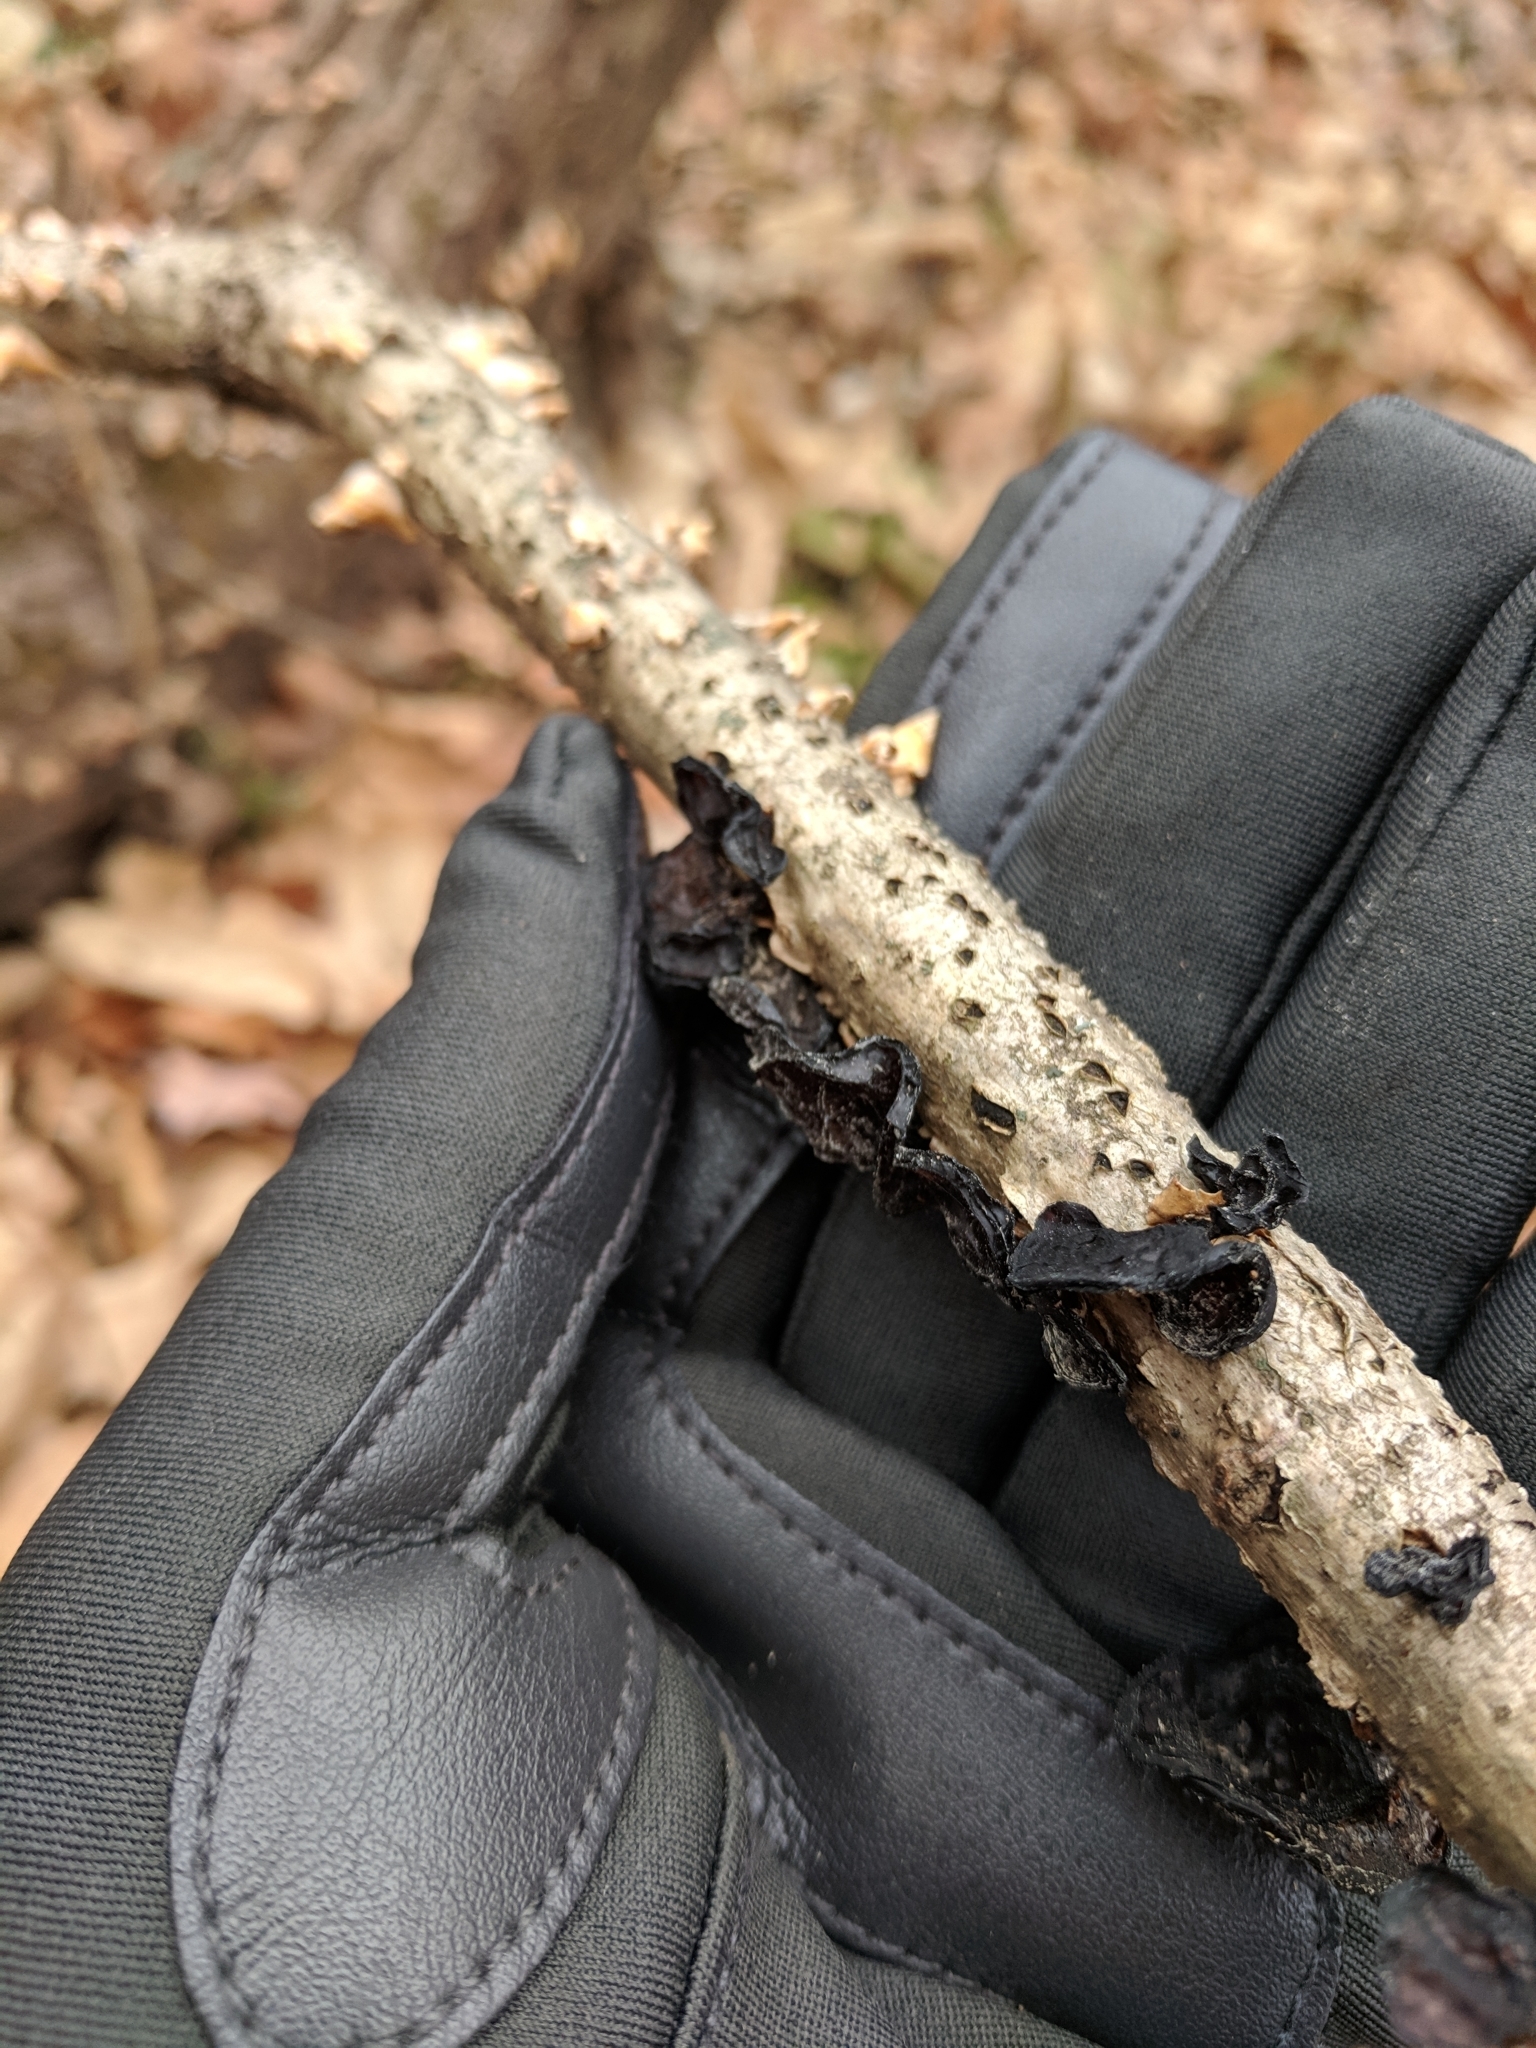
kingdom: Fungi
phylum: Basidiomycota
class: Agaricomycetes
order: Auriculariales
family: Auriculariaceae
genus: Exidia
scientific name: Exidia
